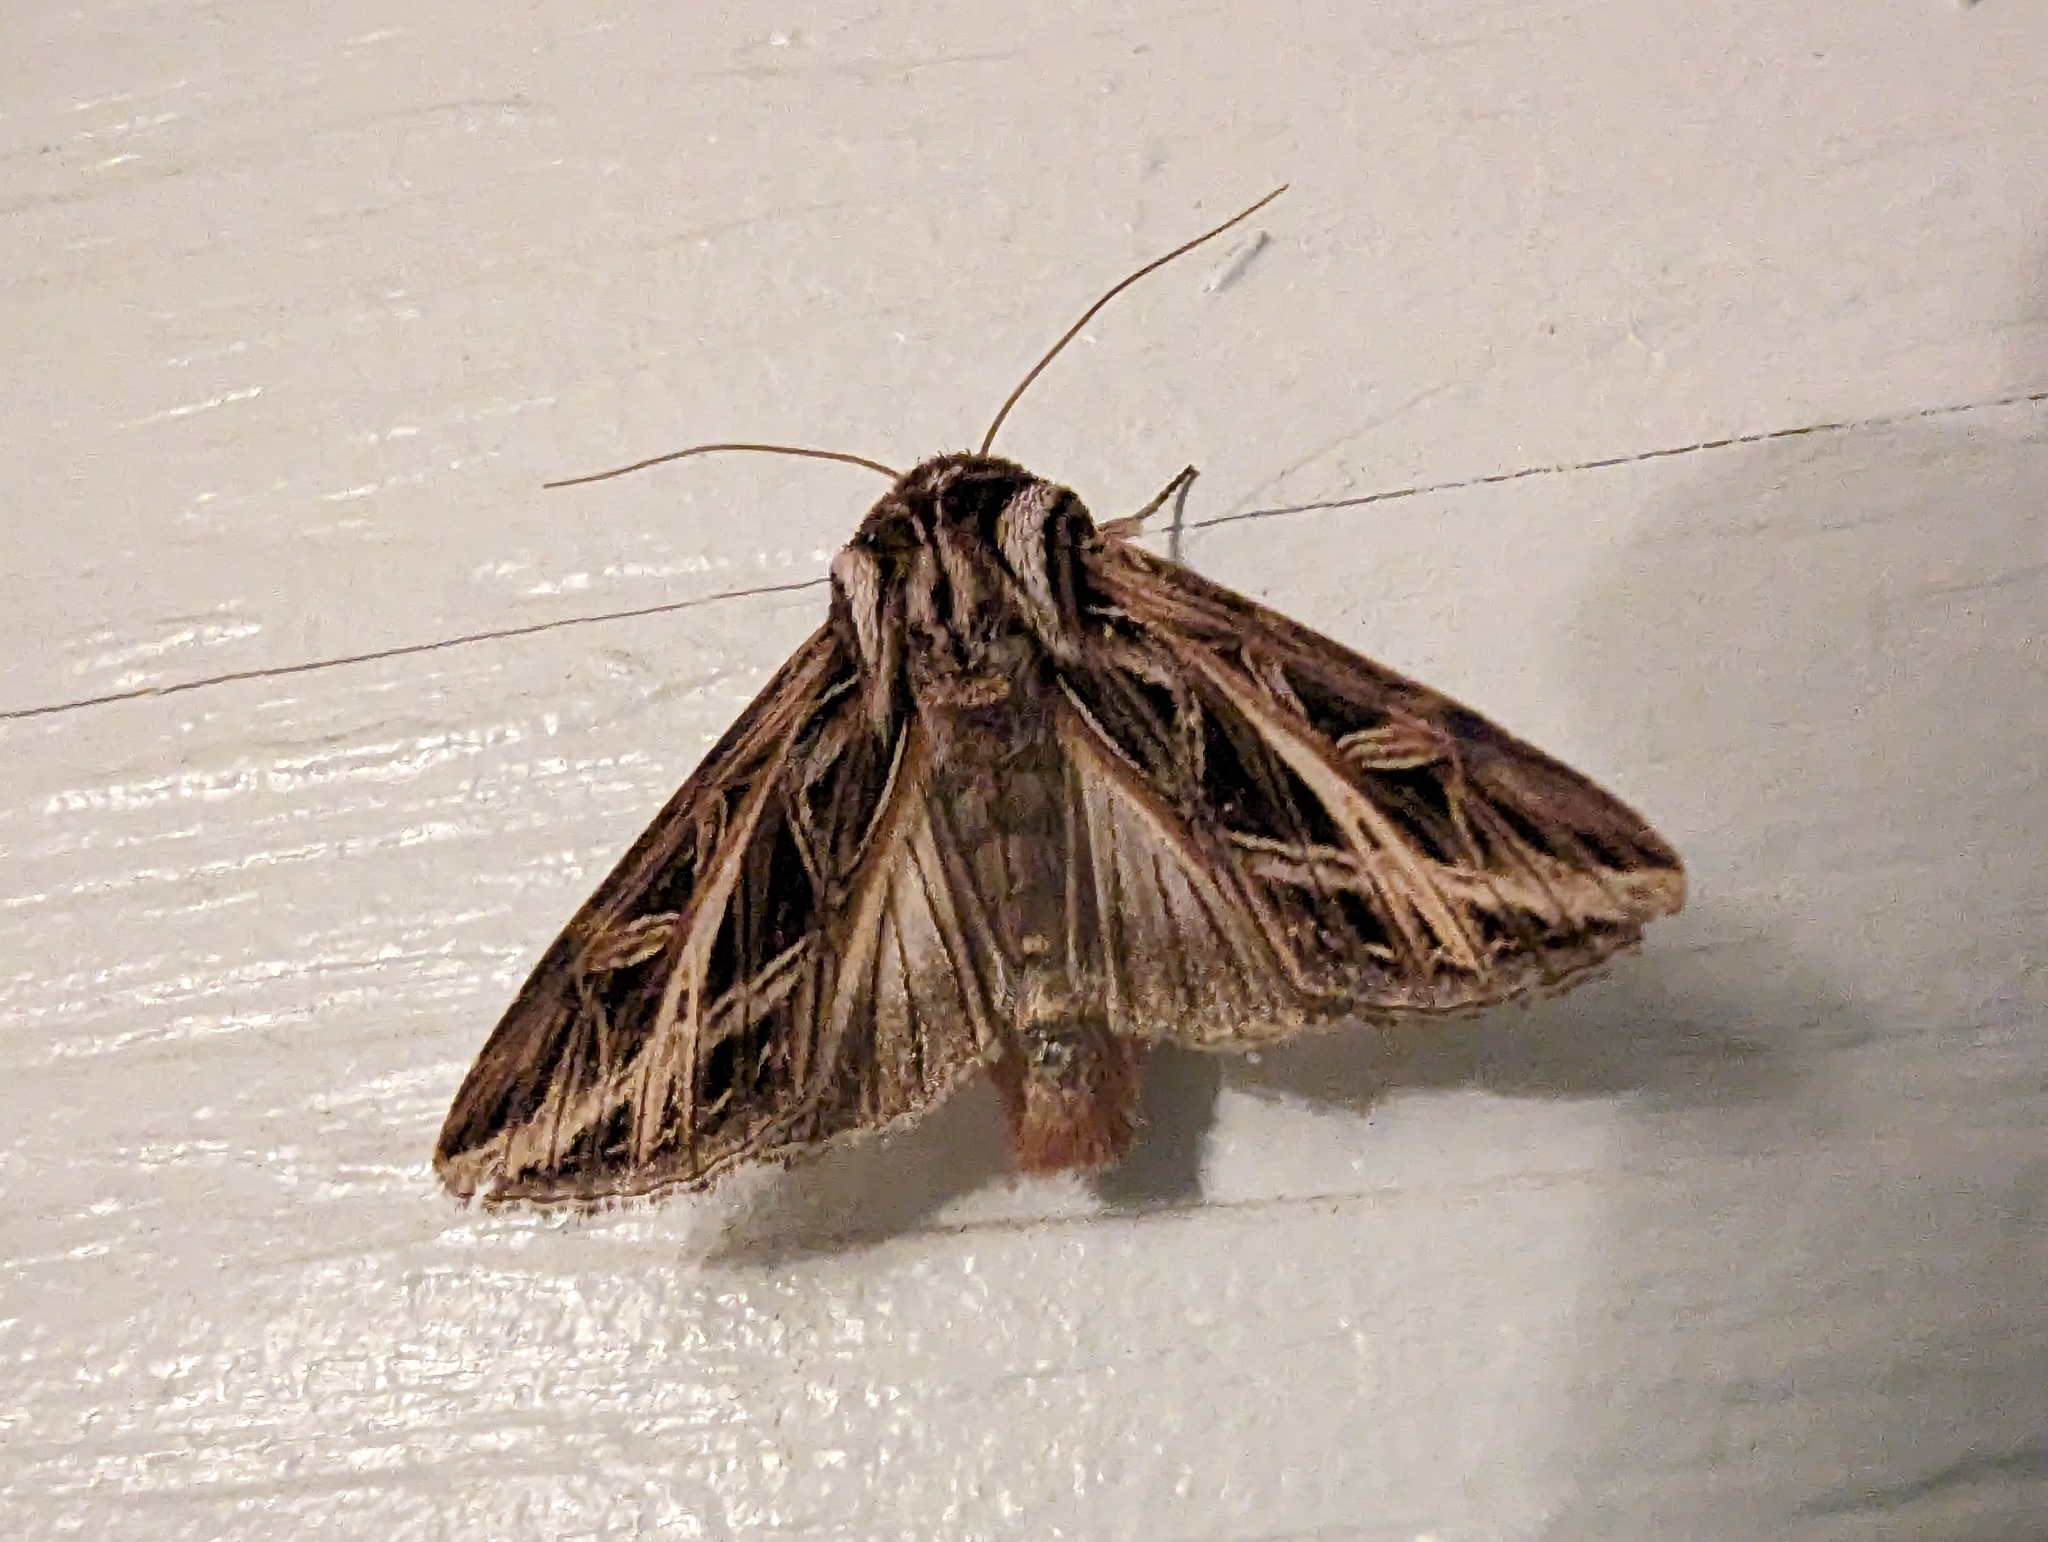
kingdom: Animalia
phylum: Arthropoda
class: Insecta
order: Lepidoptera
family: Noctuidae
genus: Dargida
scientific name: Dargida procinctus
